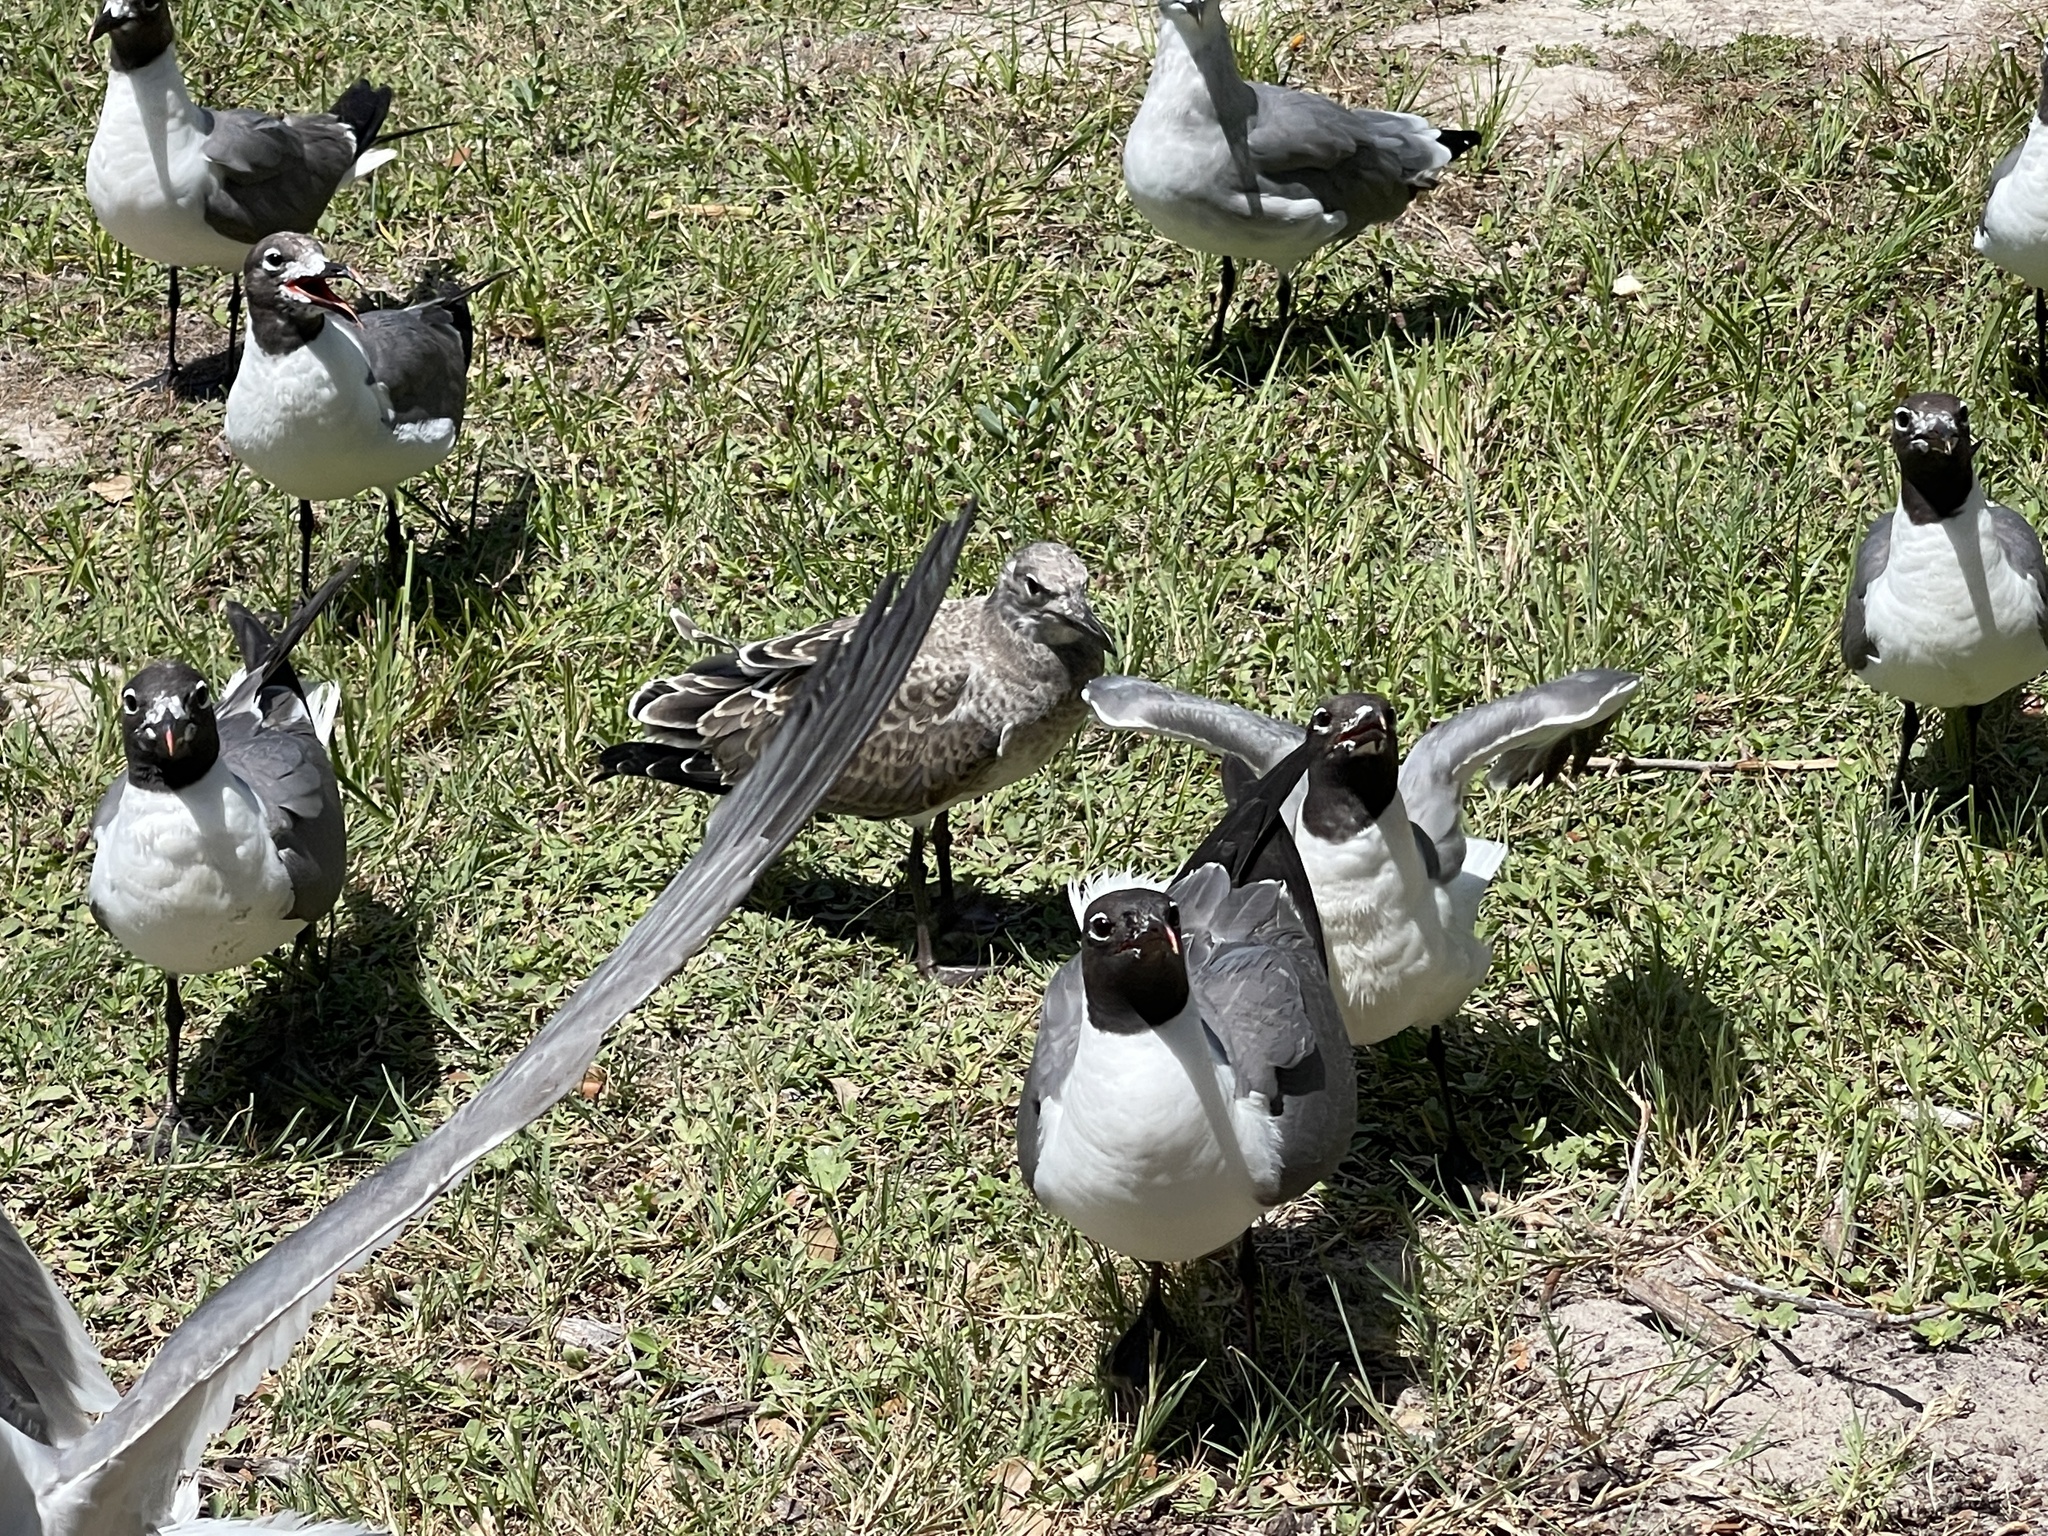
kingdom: Animalia
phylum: Chordata
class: Aves
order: Charadriiformes
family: Laridae
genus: Leucophaeus
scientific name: Leucophaeus atricilla
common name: Laughing gull
